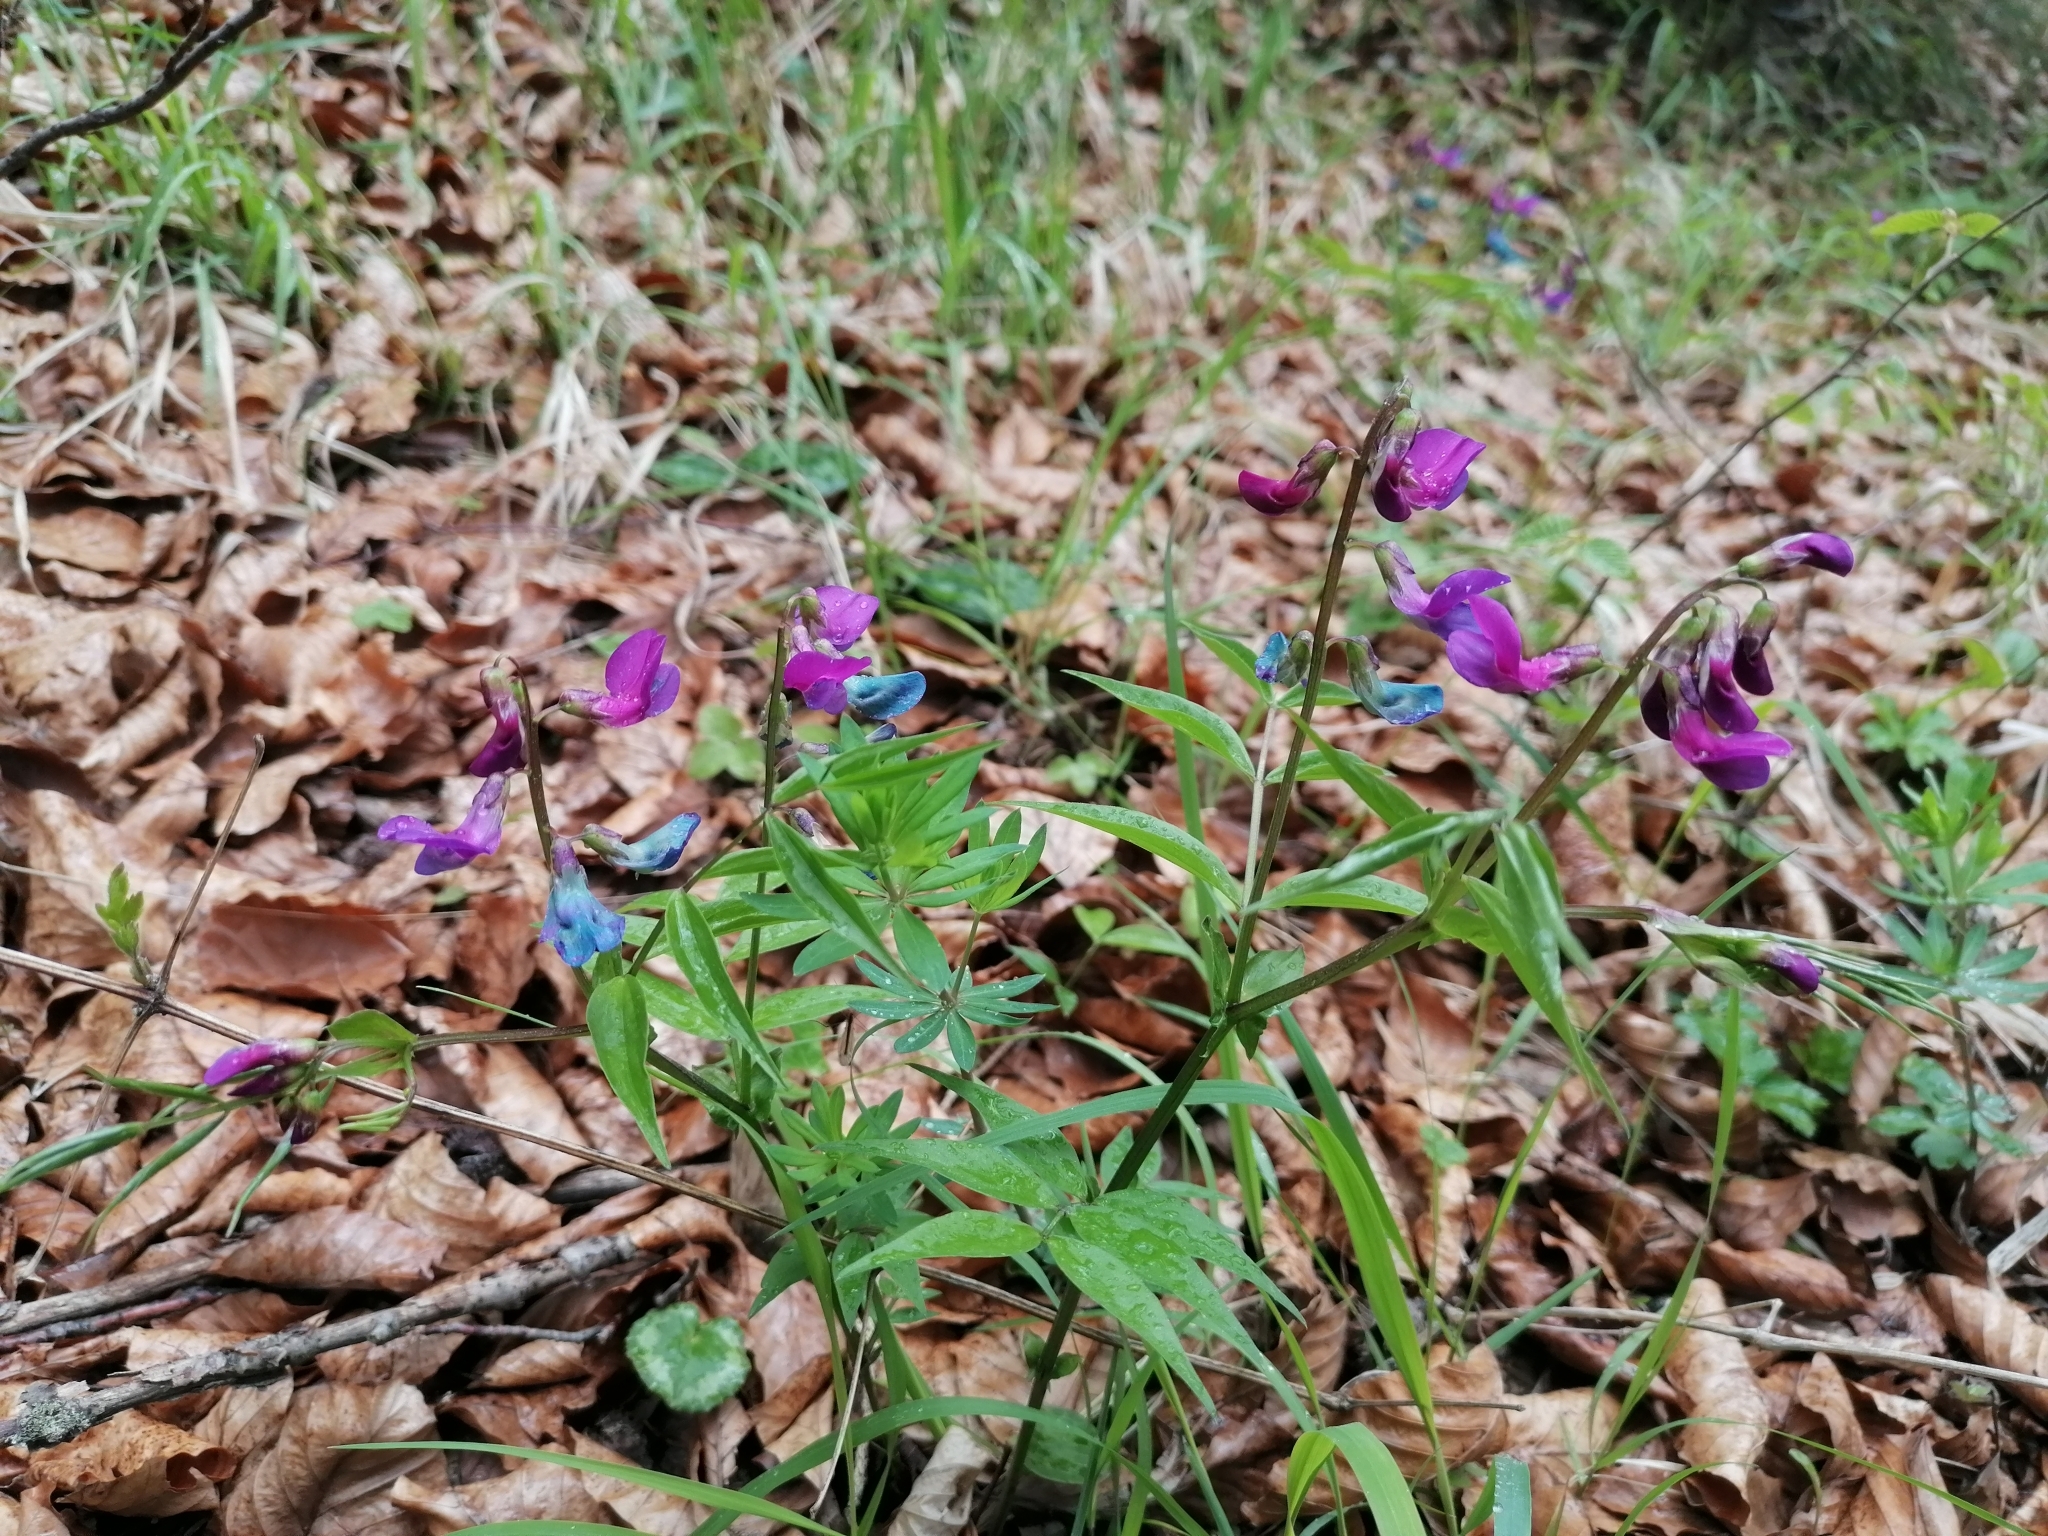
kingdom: Plantae
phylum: Tracheophyta
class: Magnoliopsida
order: Fabales
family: Fabaceae
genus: Lathyrus
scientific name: Lathyrus vernus
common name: Spring pea
